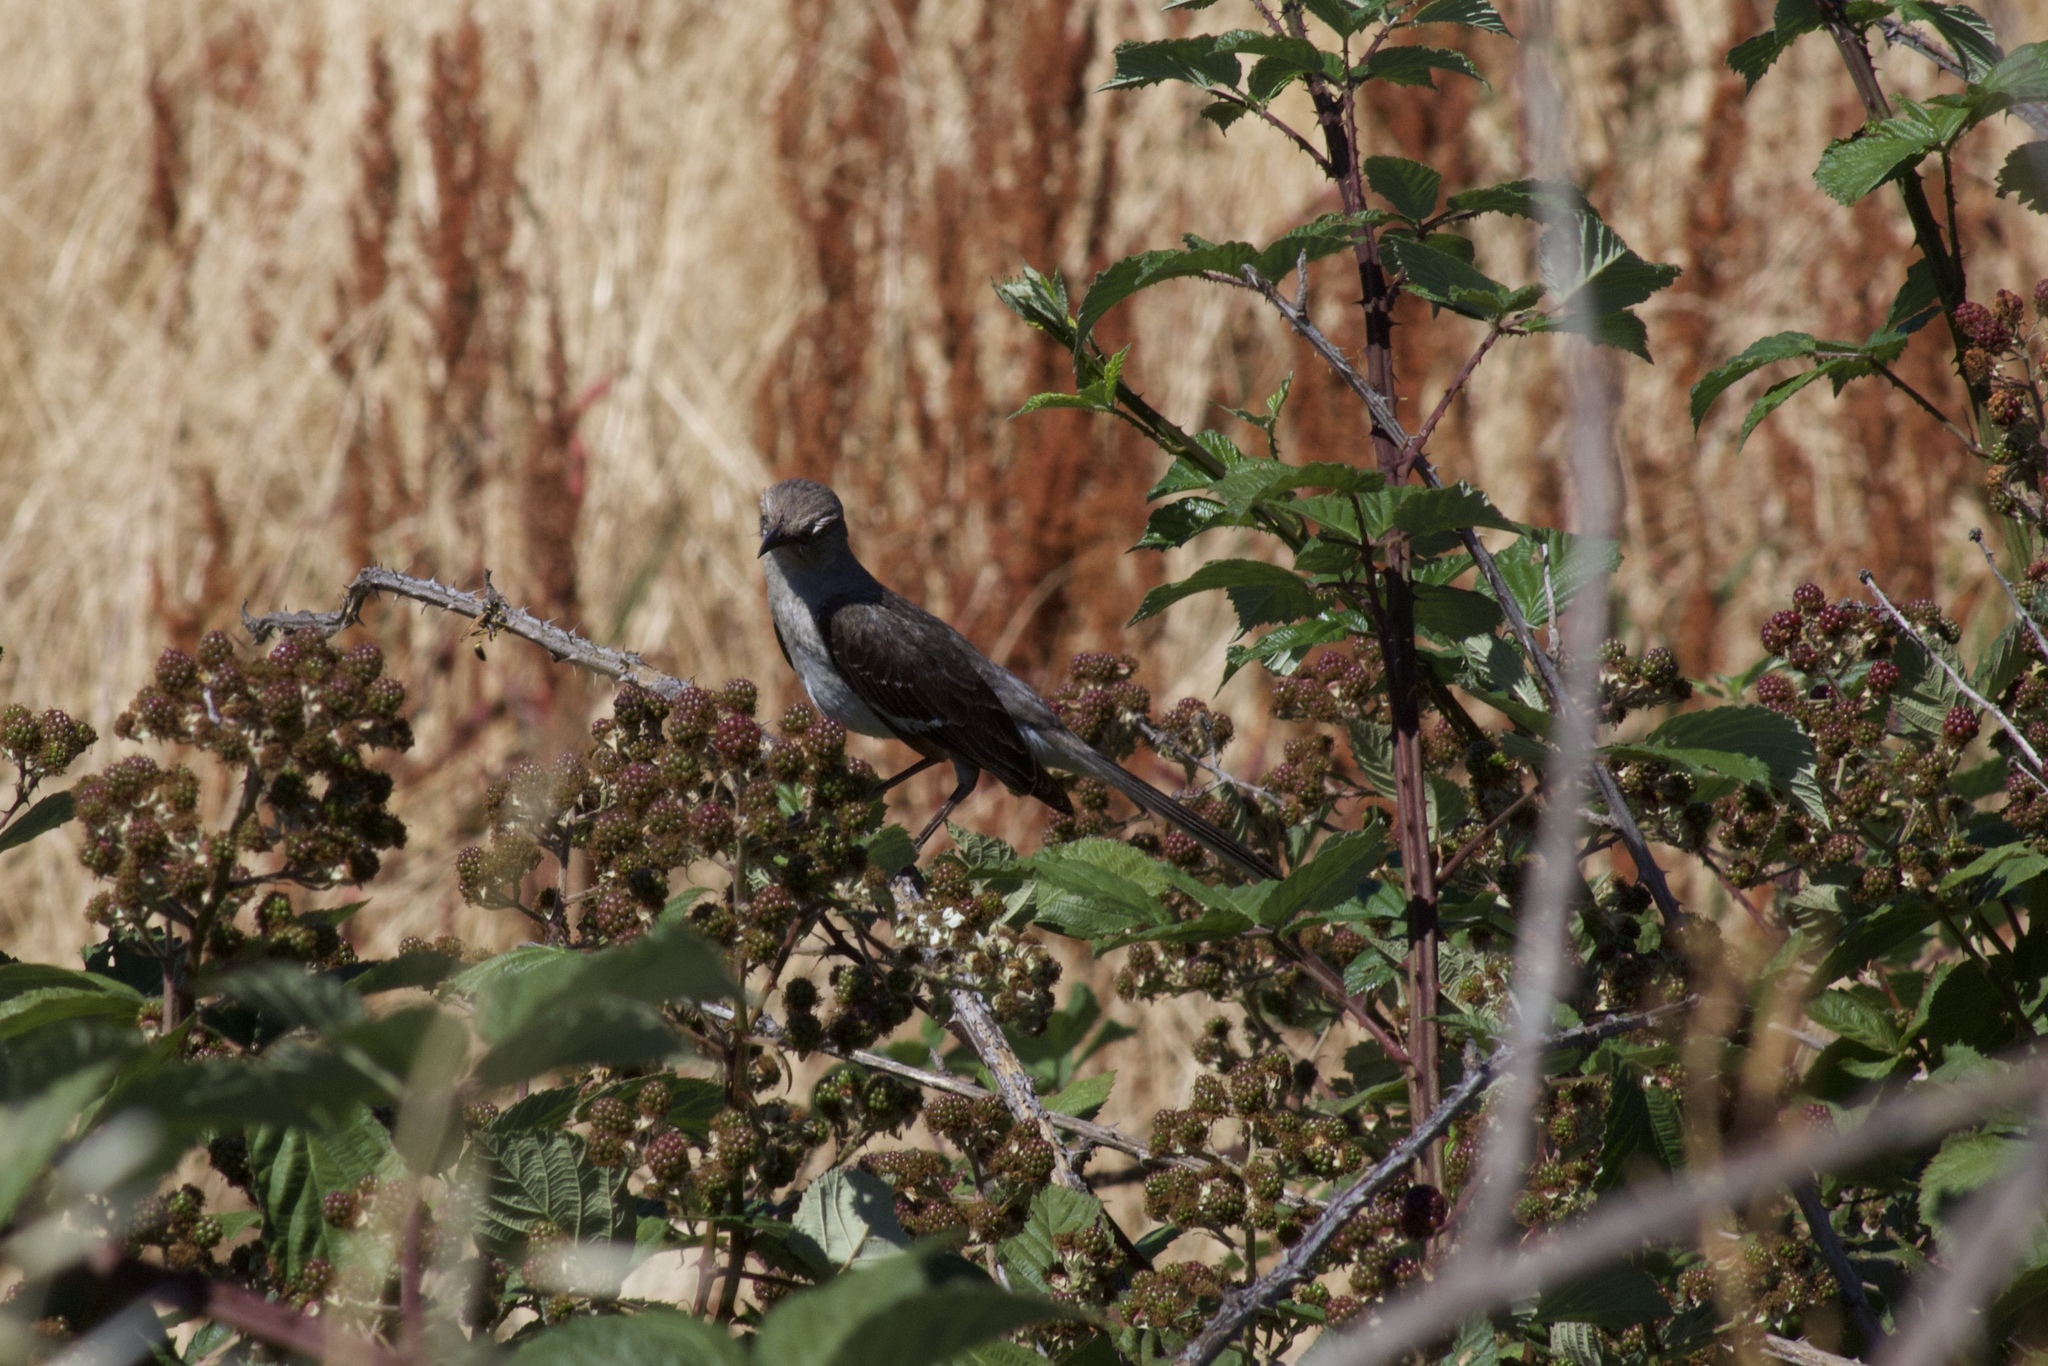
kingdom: Animalia
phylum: Chordata
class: Aves
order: Passeriformes
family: Mimidae
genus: Mimus
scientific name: Mimus polyglottos
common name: Northern mockingbird
